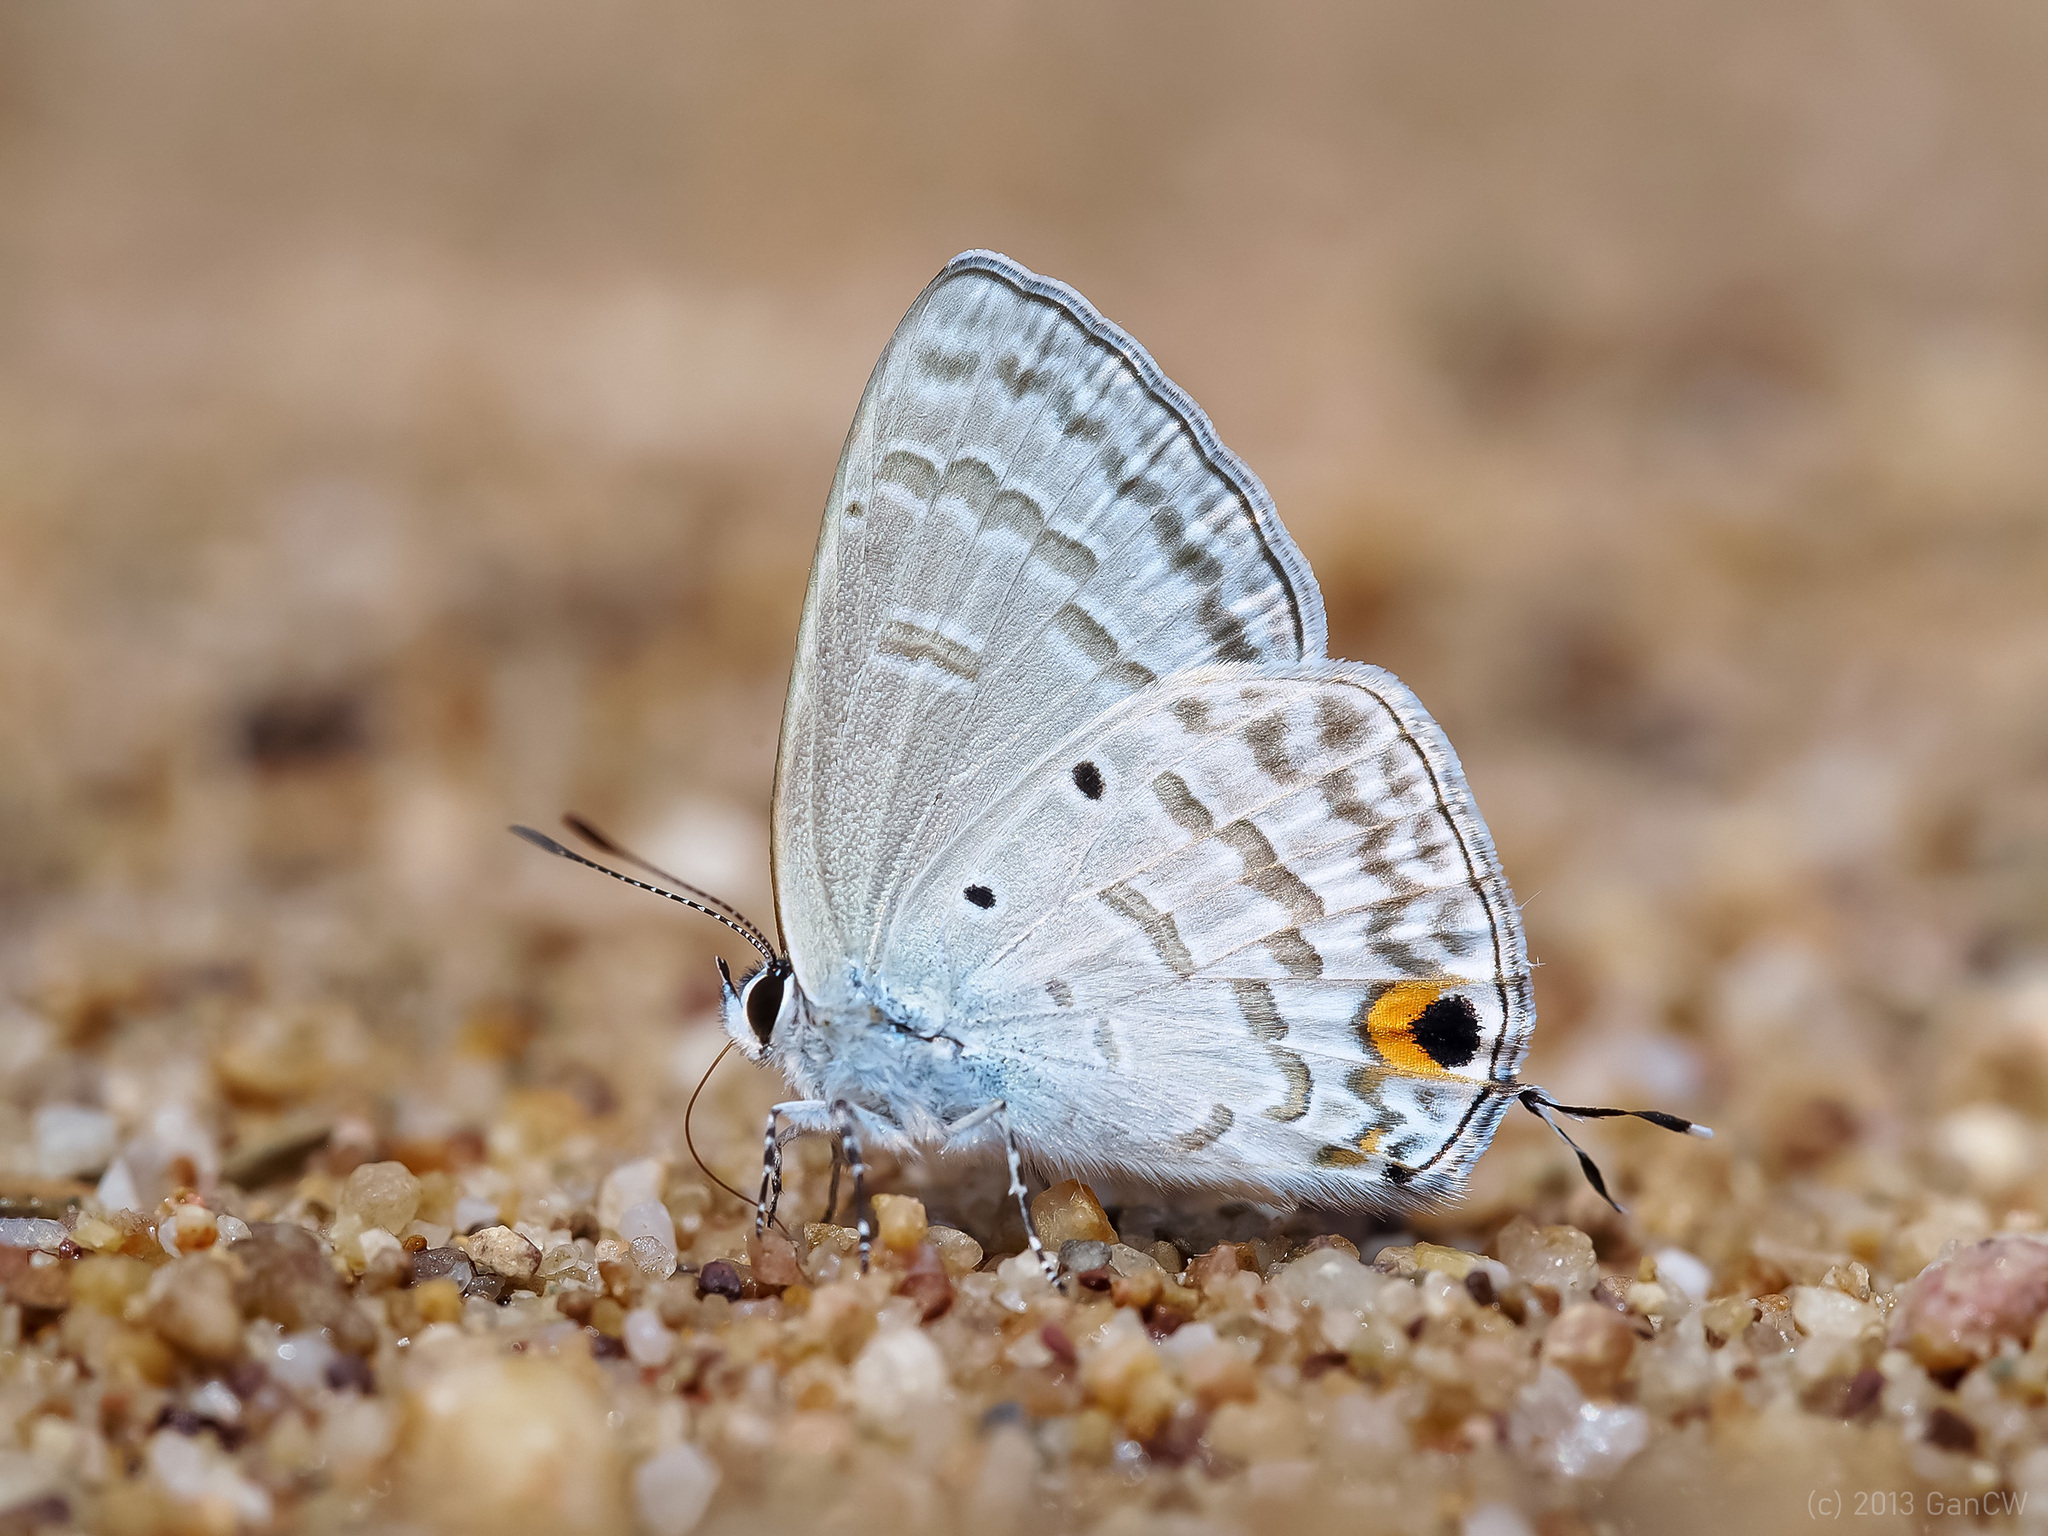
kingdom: Animalia
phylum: Arthropoda
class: Insecta
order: Lepidoptera
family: Lycaenidae
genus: Catochrysops
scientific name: Catochrysops panormus
